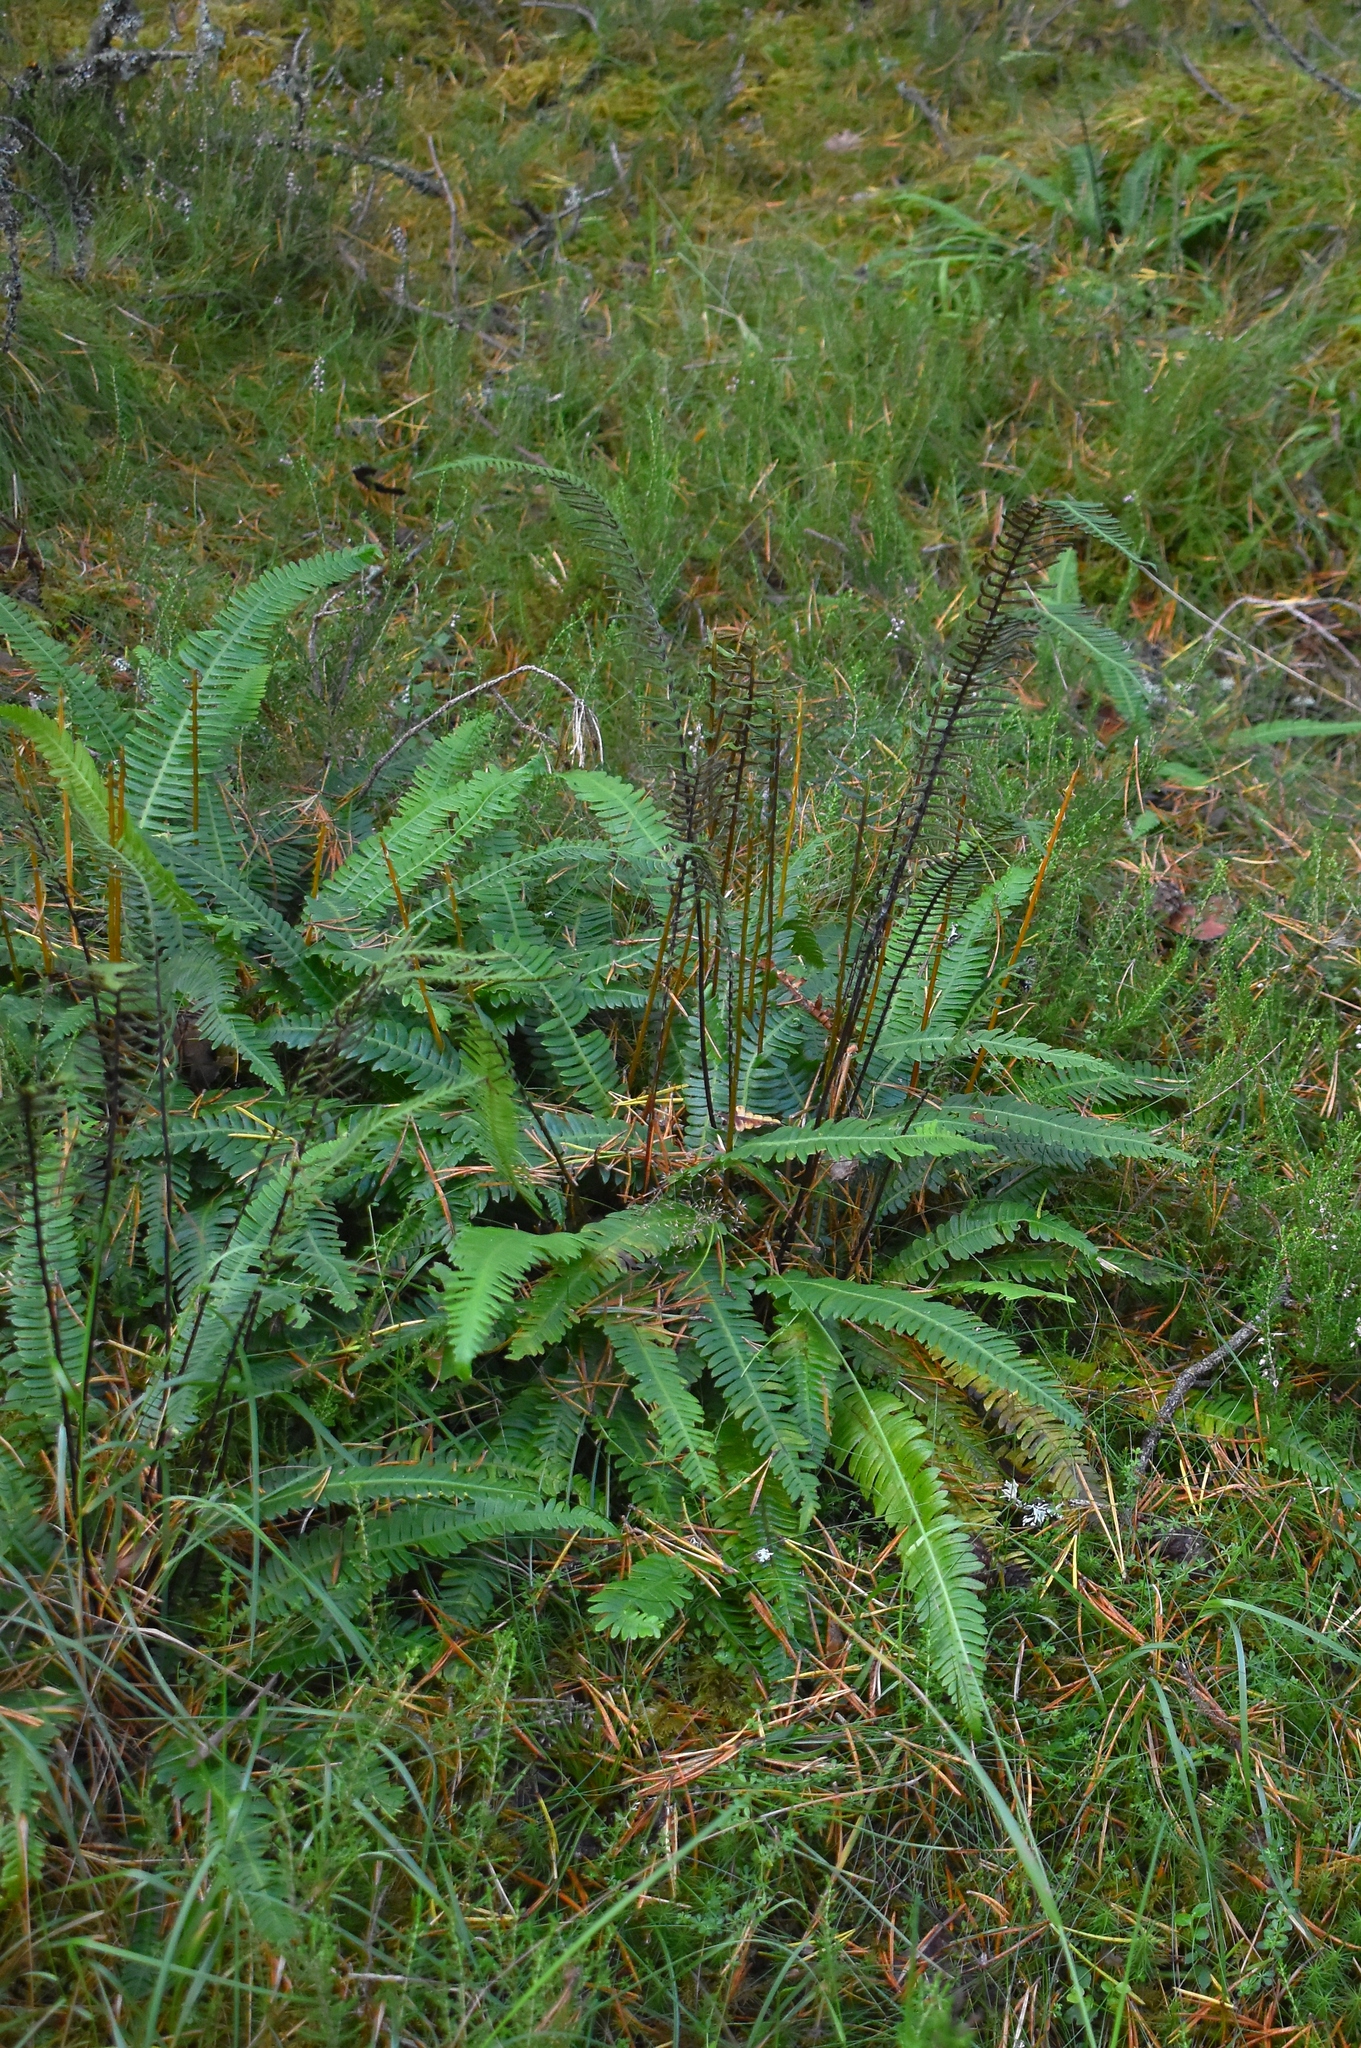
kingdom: Plantae
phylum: Tracheophyta
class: Polypodiopsida
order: Polypodiales
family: Blechnaceae
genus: Struthiopteris
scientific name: Struthiopteris spicant
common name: Deer fern
